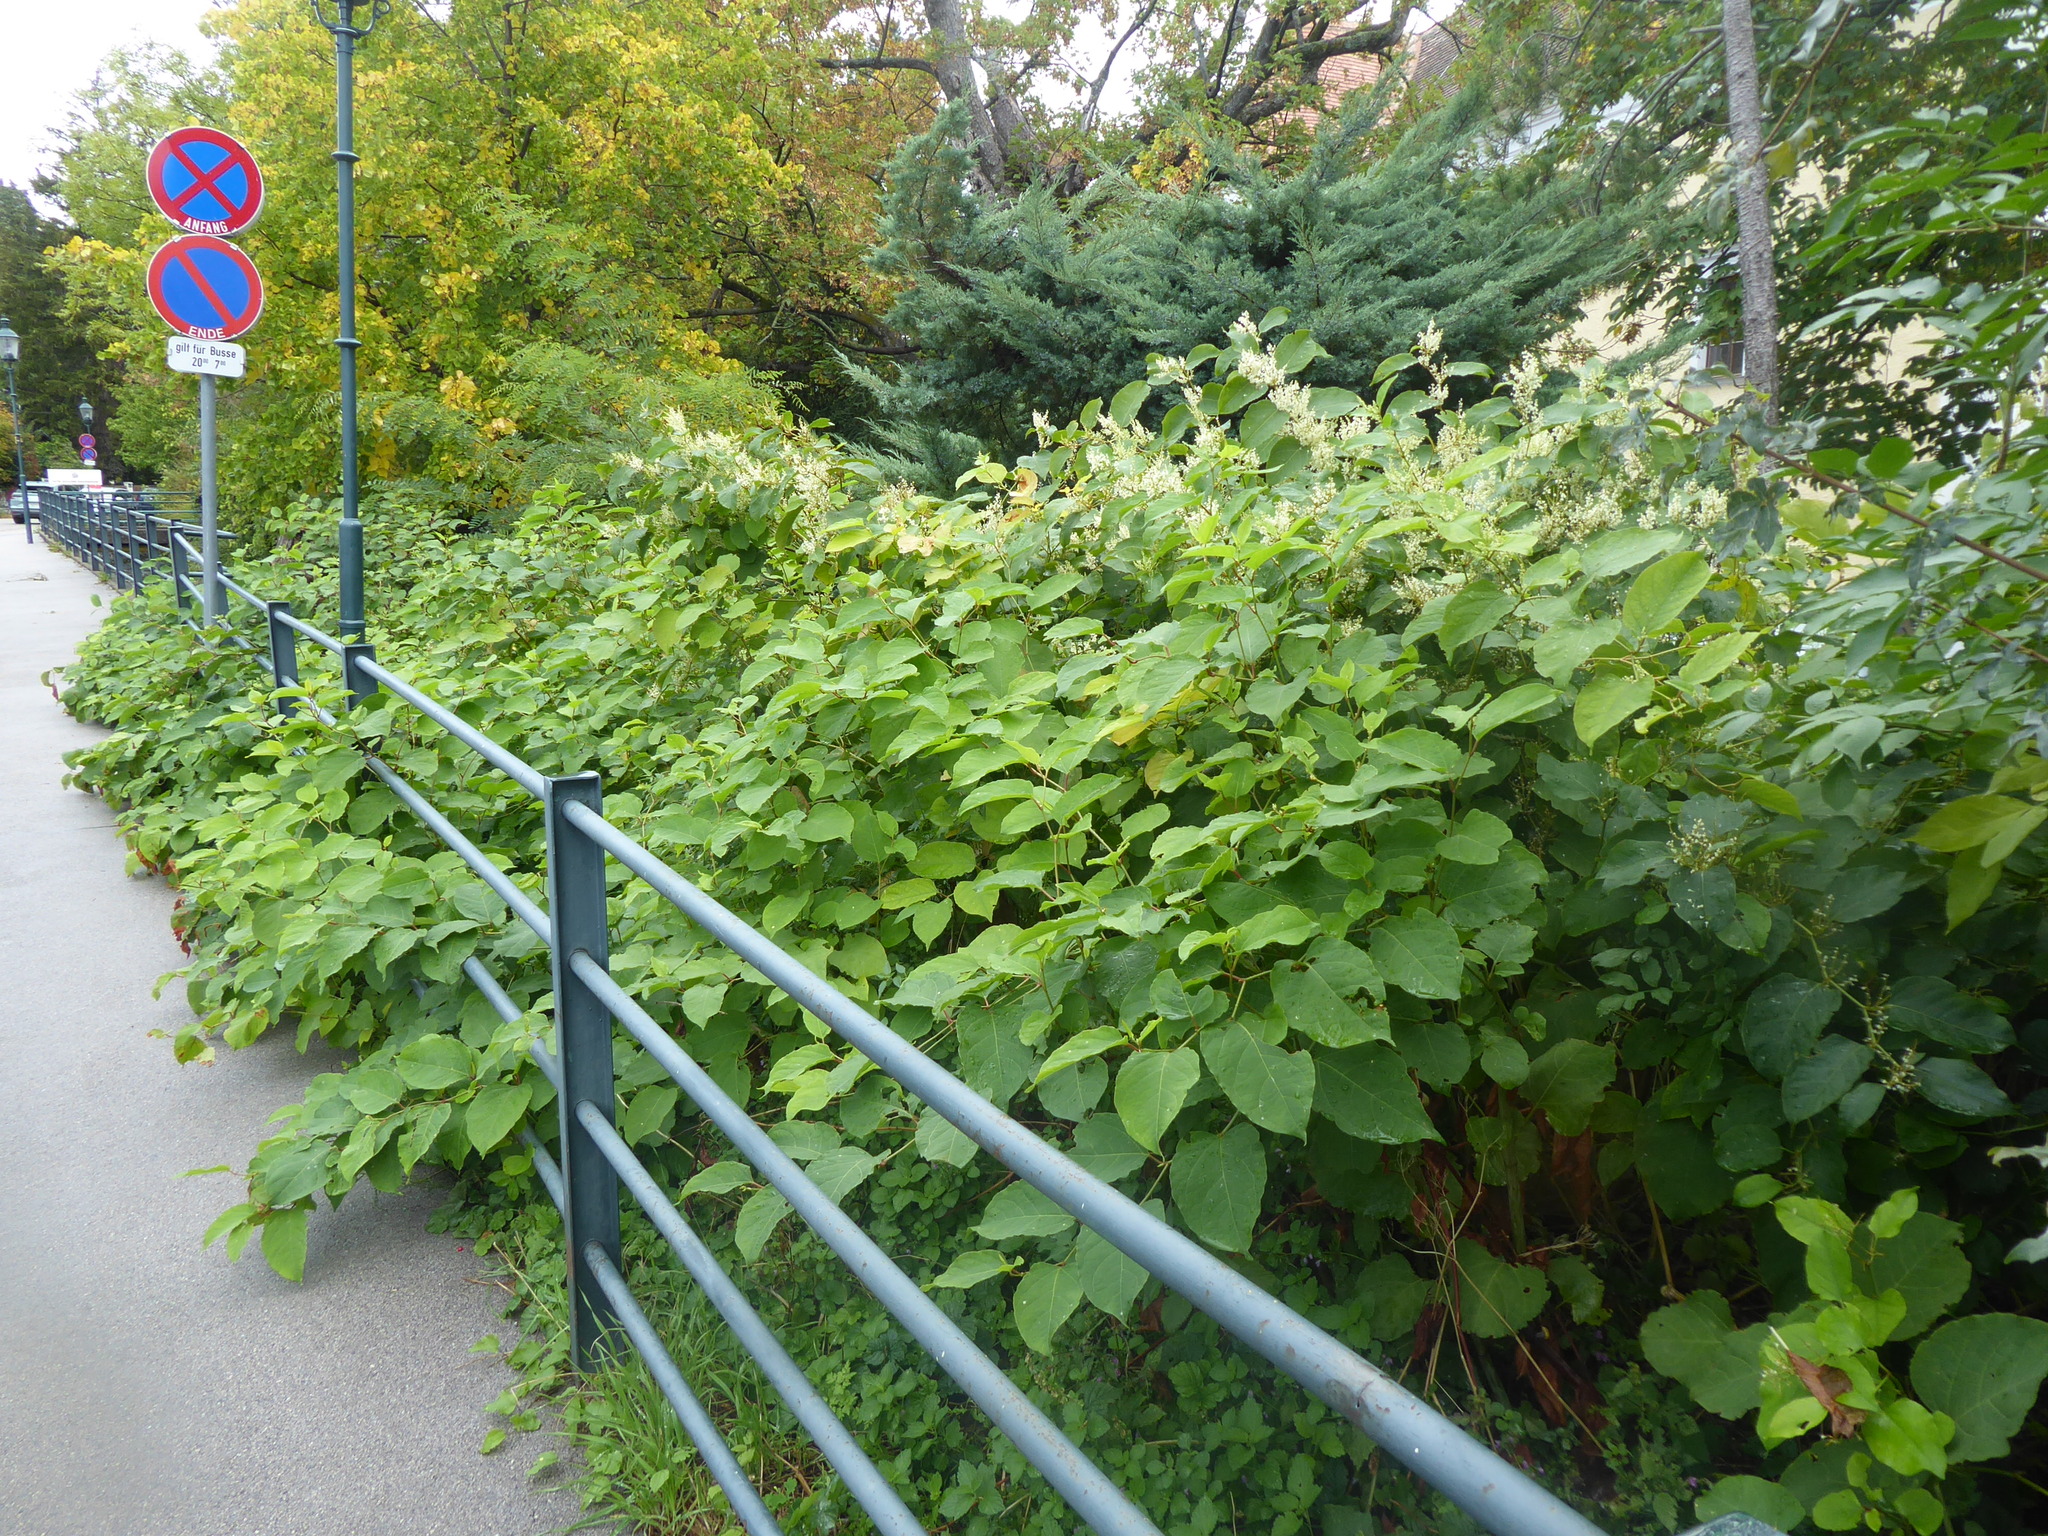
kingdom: Plantae
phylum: Tracheophyta
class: Magnoliopsida
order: Caryophyllales
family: Polygonaceae
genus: Reynoutria
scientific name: Reynoutria bohemica
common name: Bohemian knotweed
